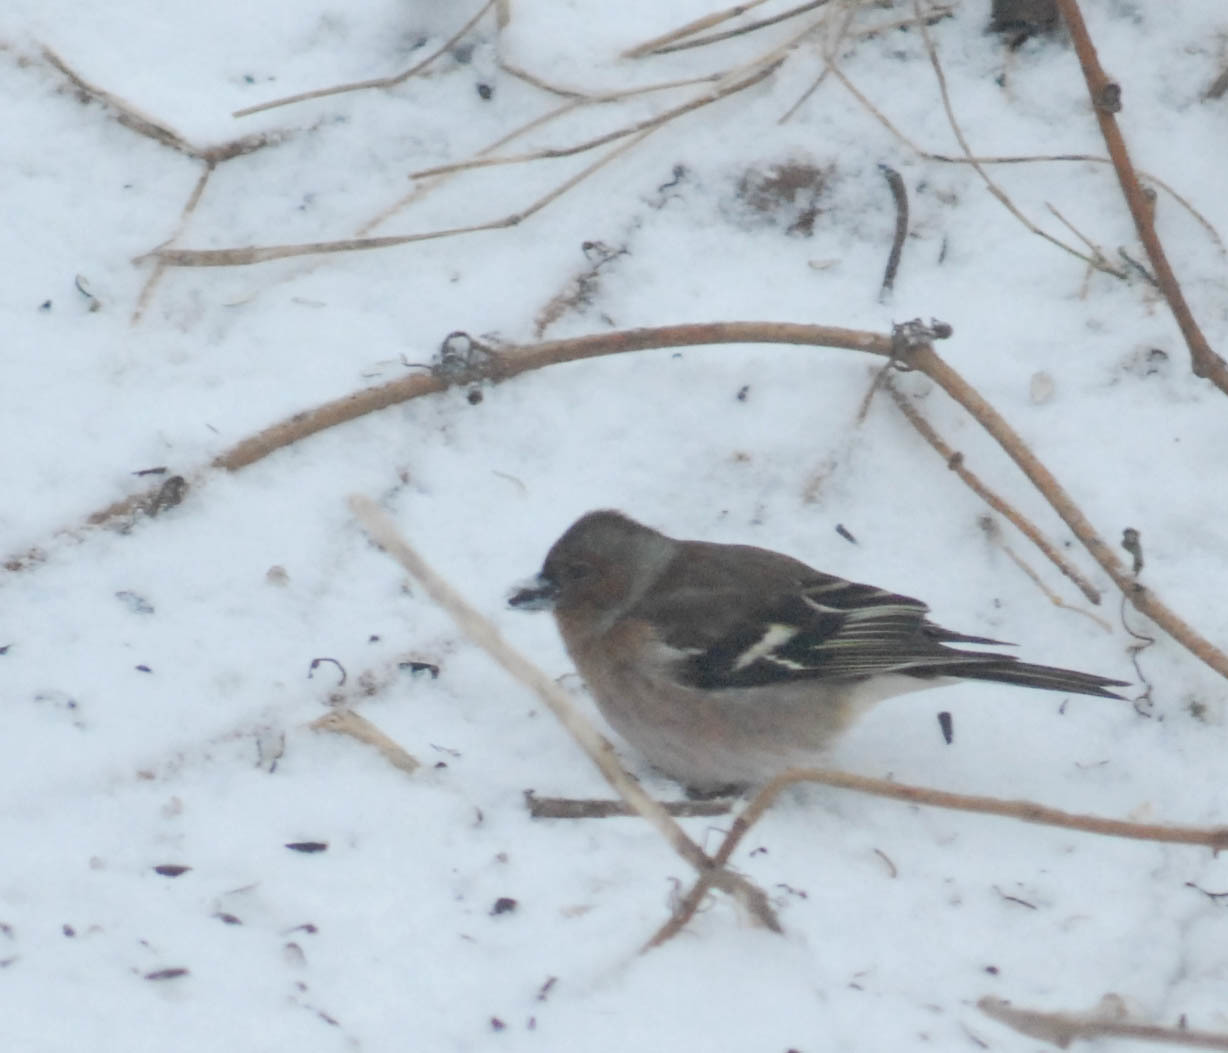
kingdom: Animalia
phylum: Chordata
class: Aves
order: Passeriformes
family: Fringillidae
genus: Fringilla
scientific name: Fringilla coelebs
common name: Common chaffinch
